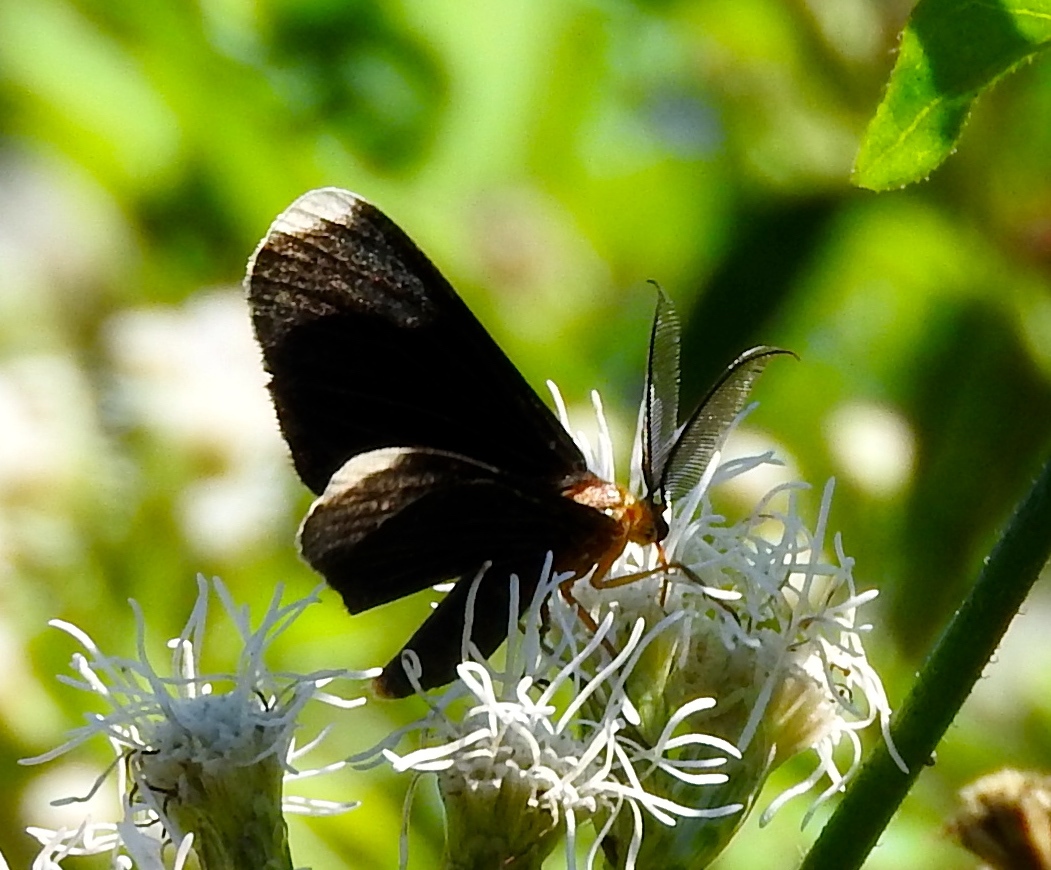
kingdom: Animalia
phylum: Arthropoda
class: Insecta
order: Lepidoptera
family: Geometridae
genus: Melanchroia
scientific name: Melanchroia chephise
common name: White-tipped black
